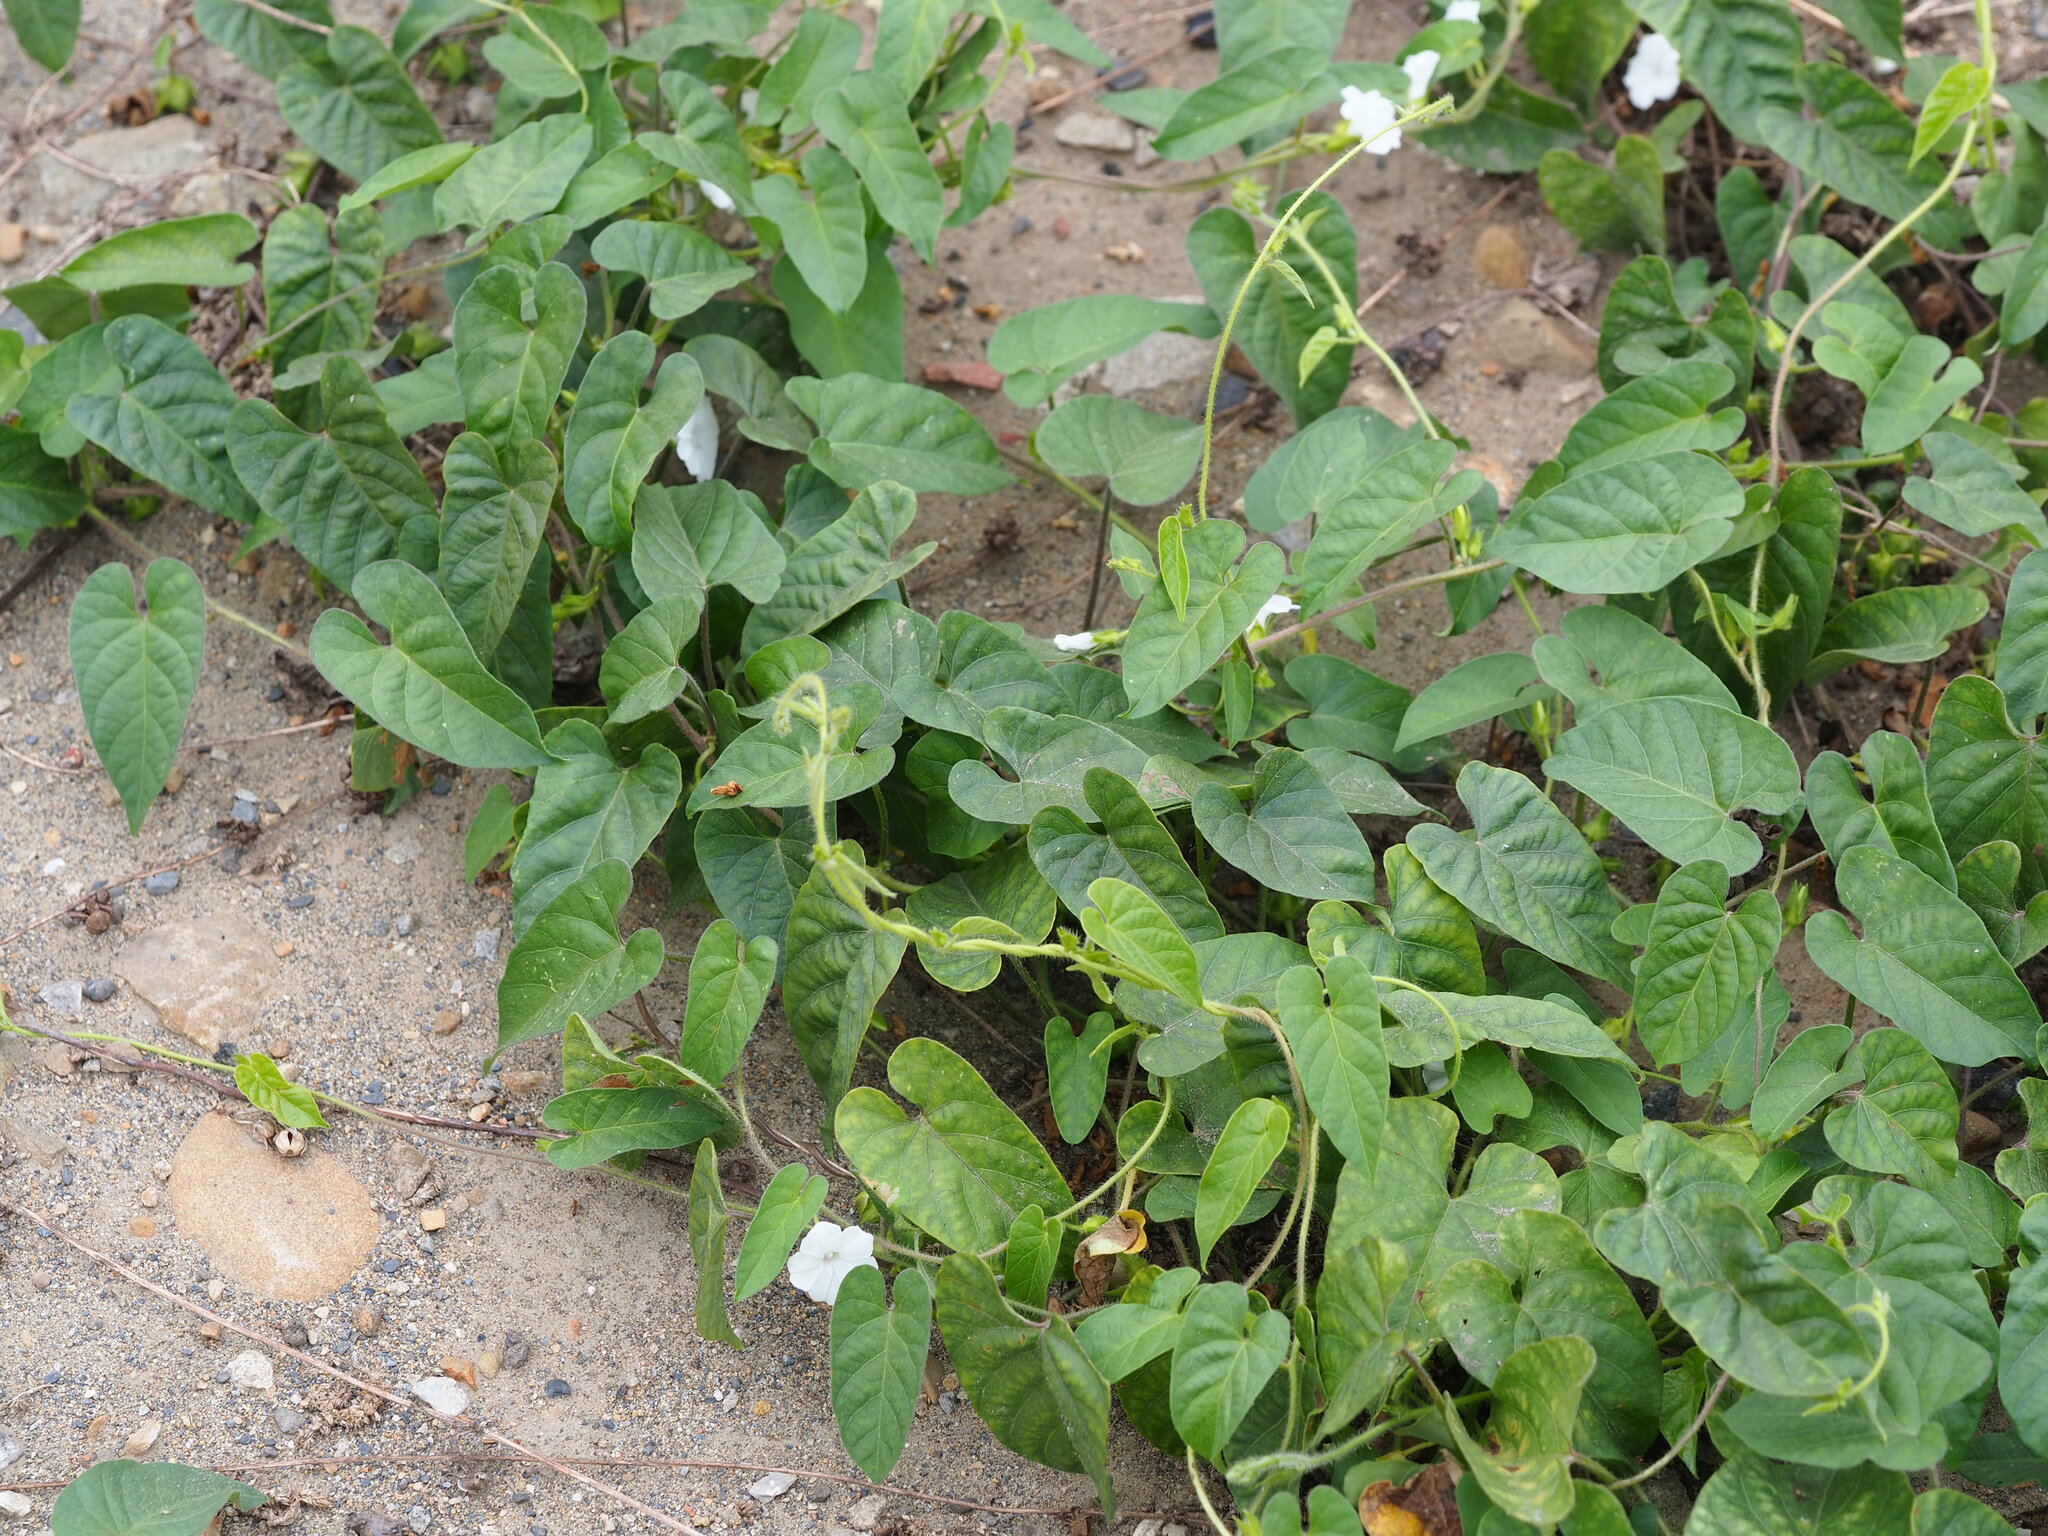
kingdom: Plantae
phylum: Tracheophyta
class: Magnoliopsida
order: Solanales
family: Convolvulaceae
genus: Ipomoea
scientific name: Ipomoea biflora
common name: Bellvine
